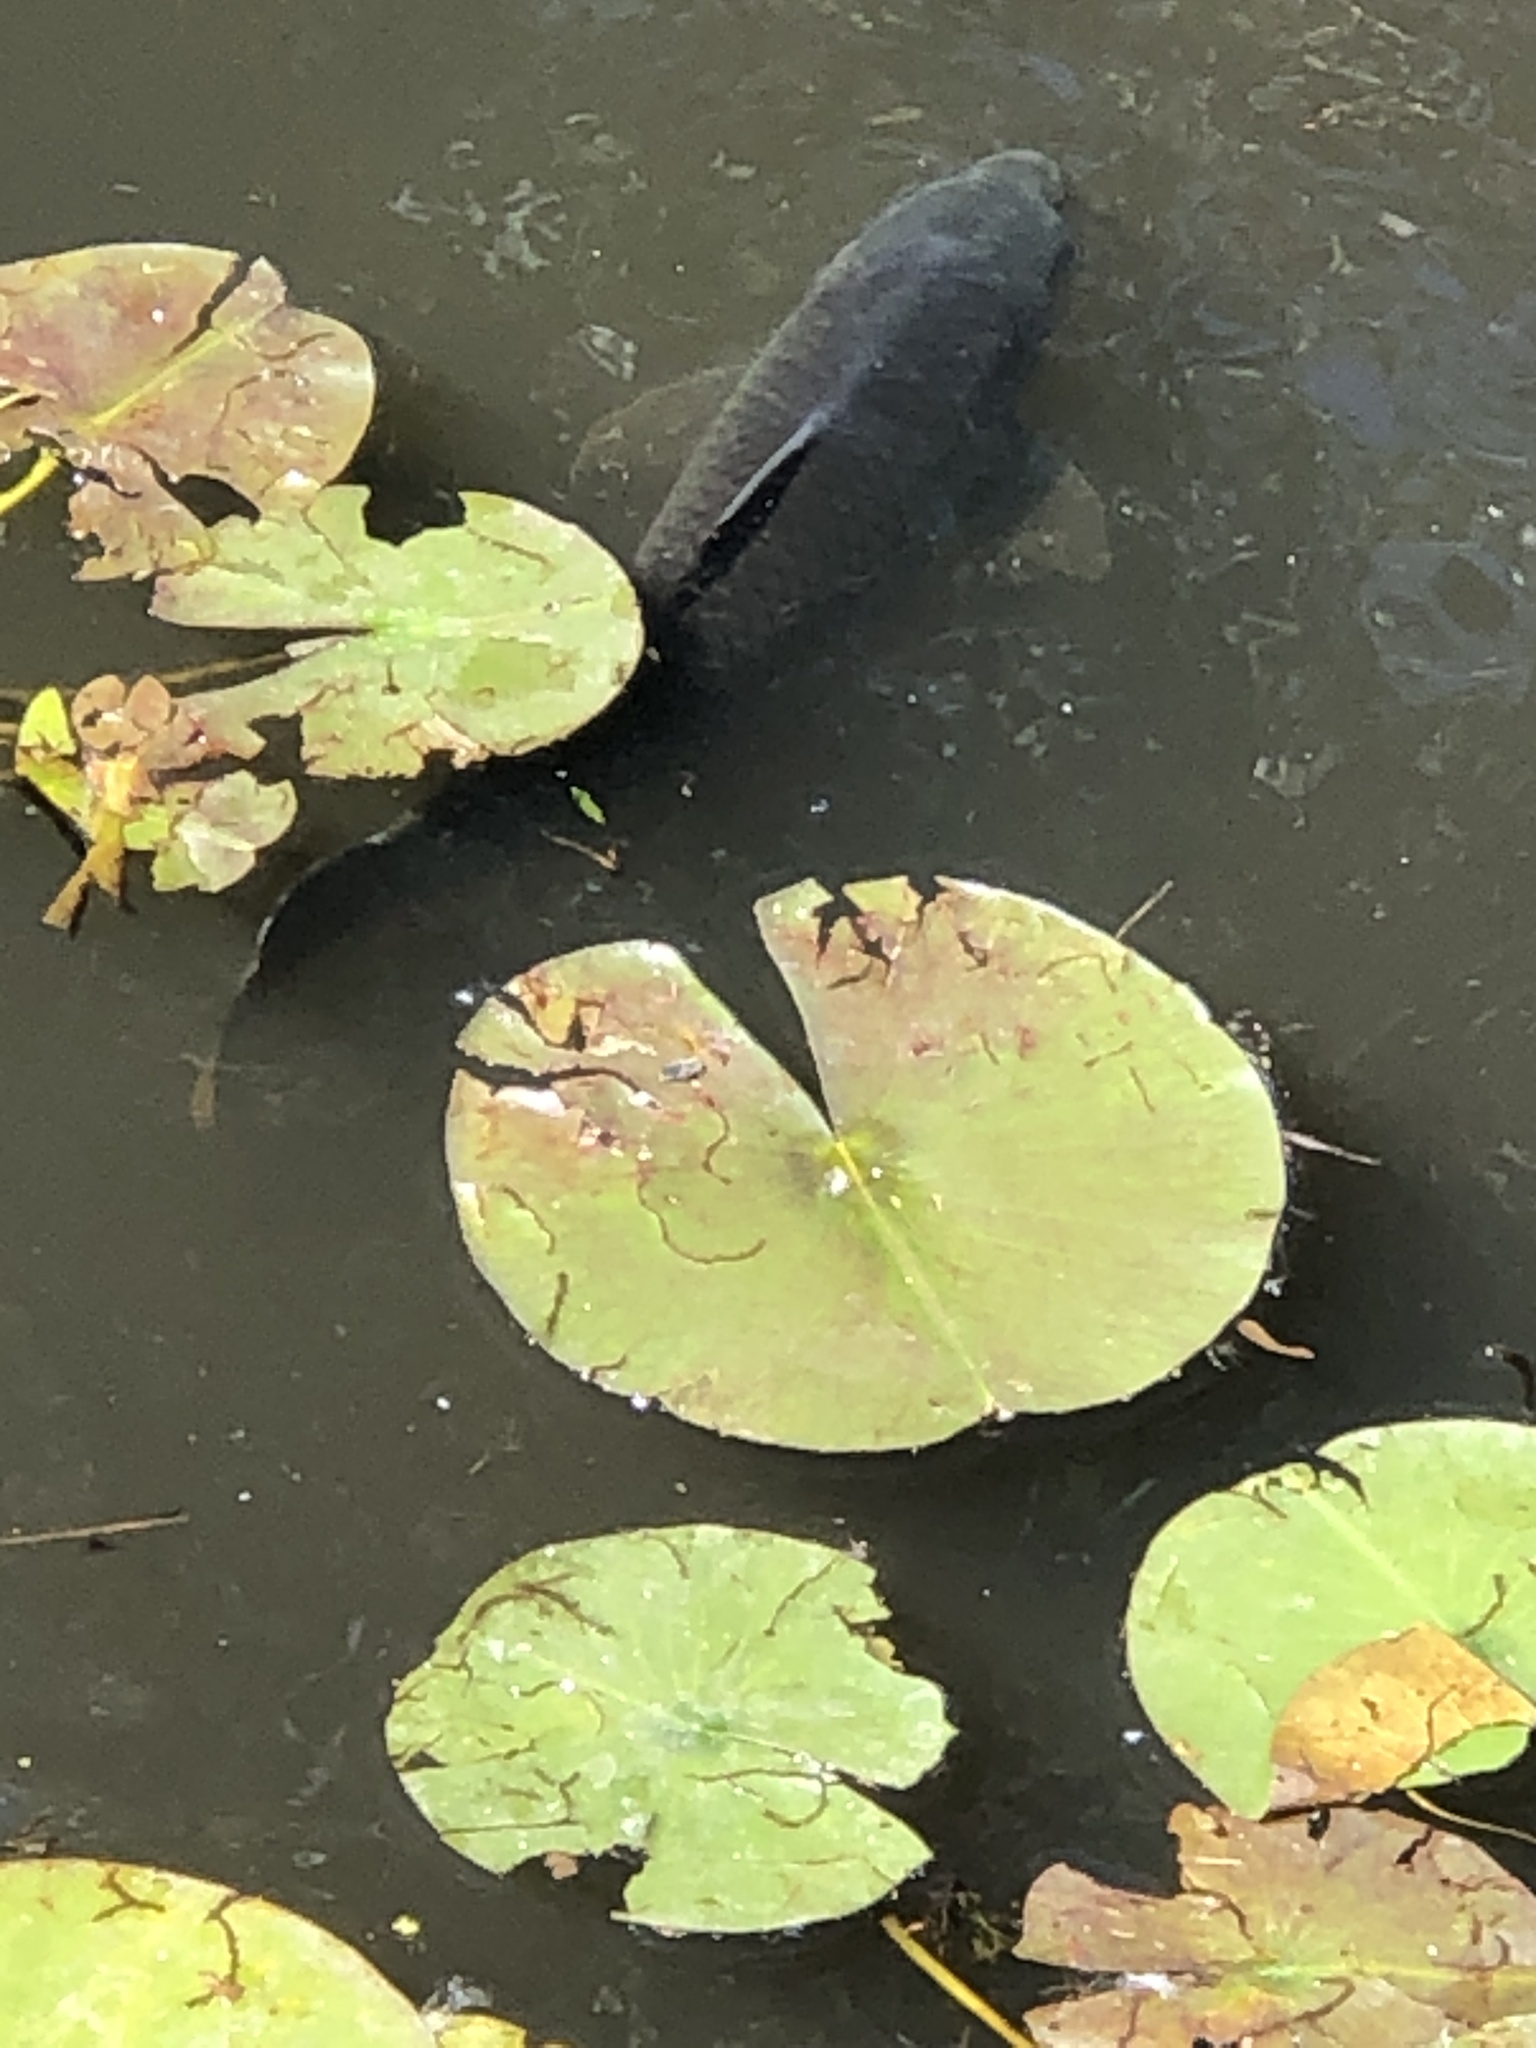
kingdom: Animalia
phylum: Chordata
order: Cypriniformes
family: Cyprinidae
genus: Cyprinus
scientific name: Cyprinus carpio
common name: Common carp
